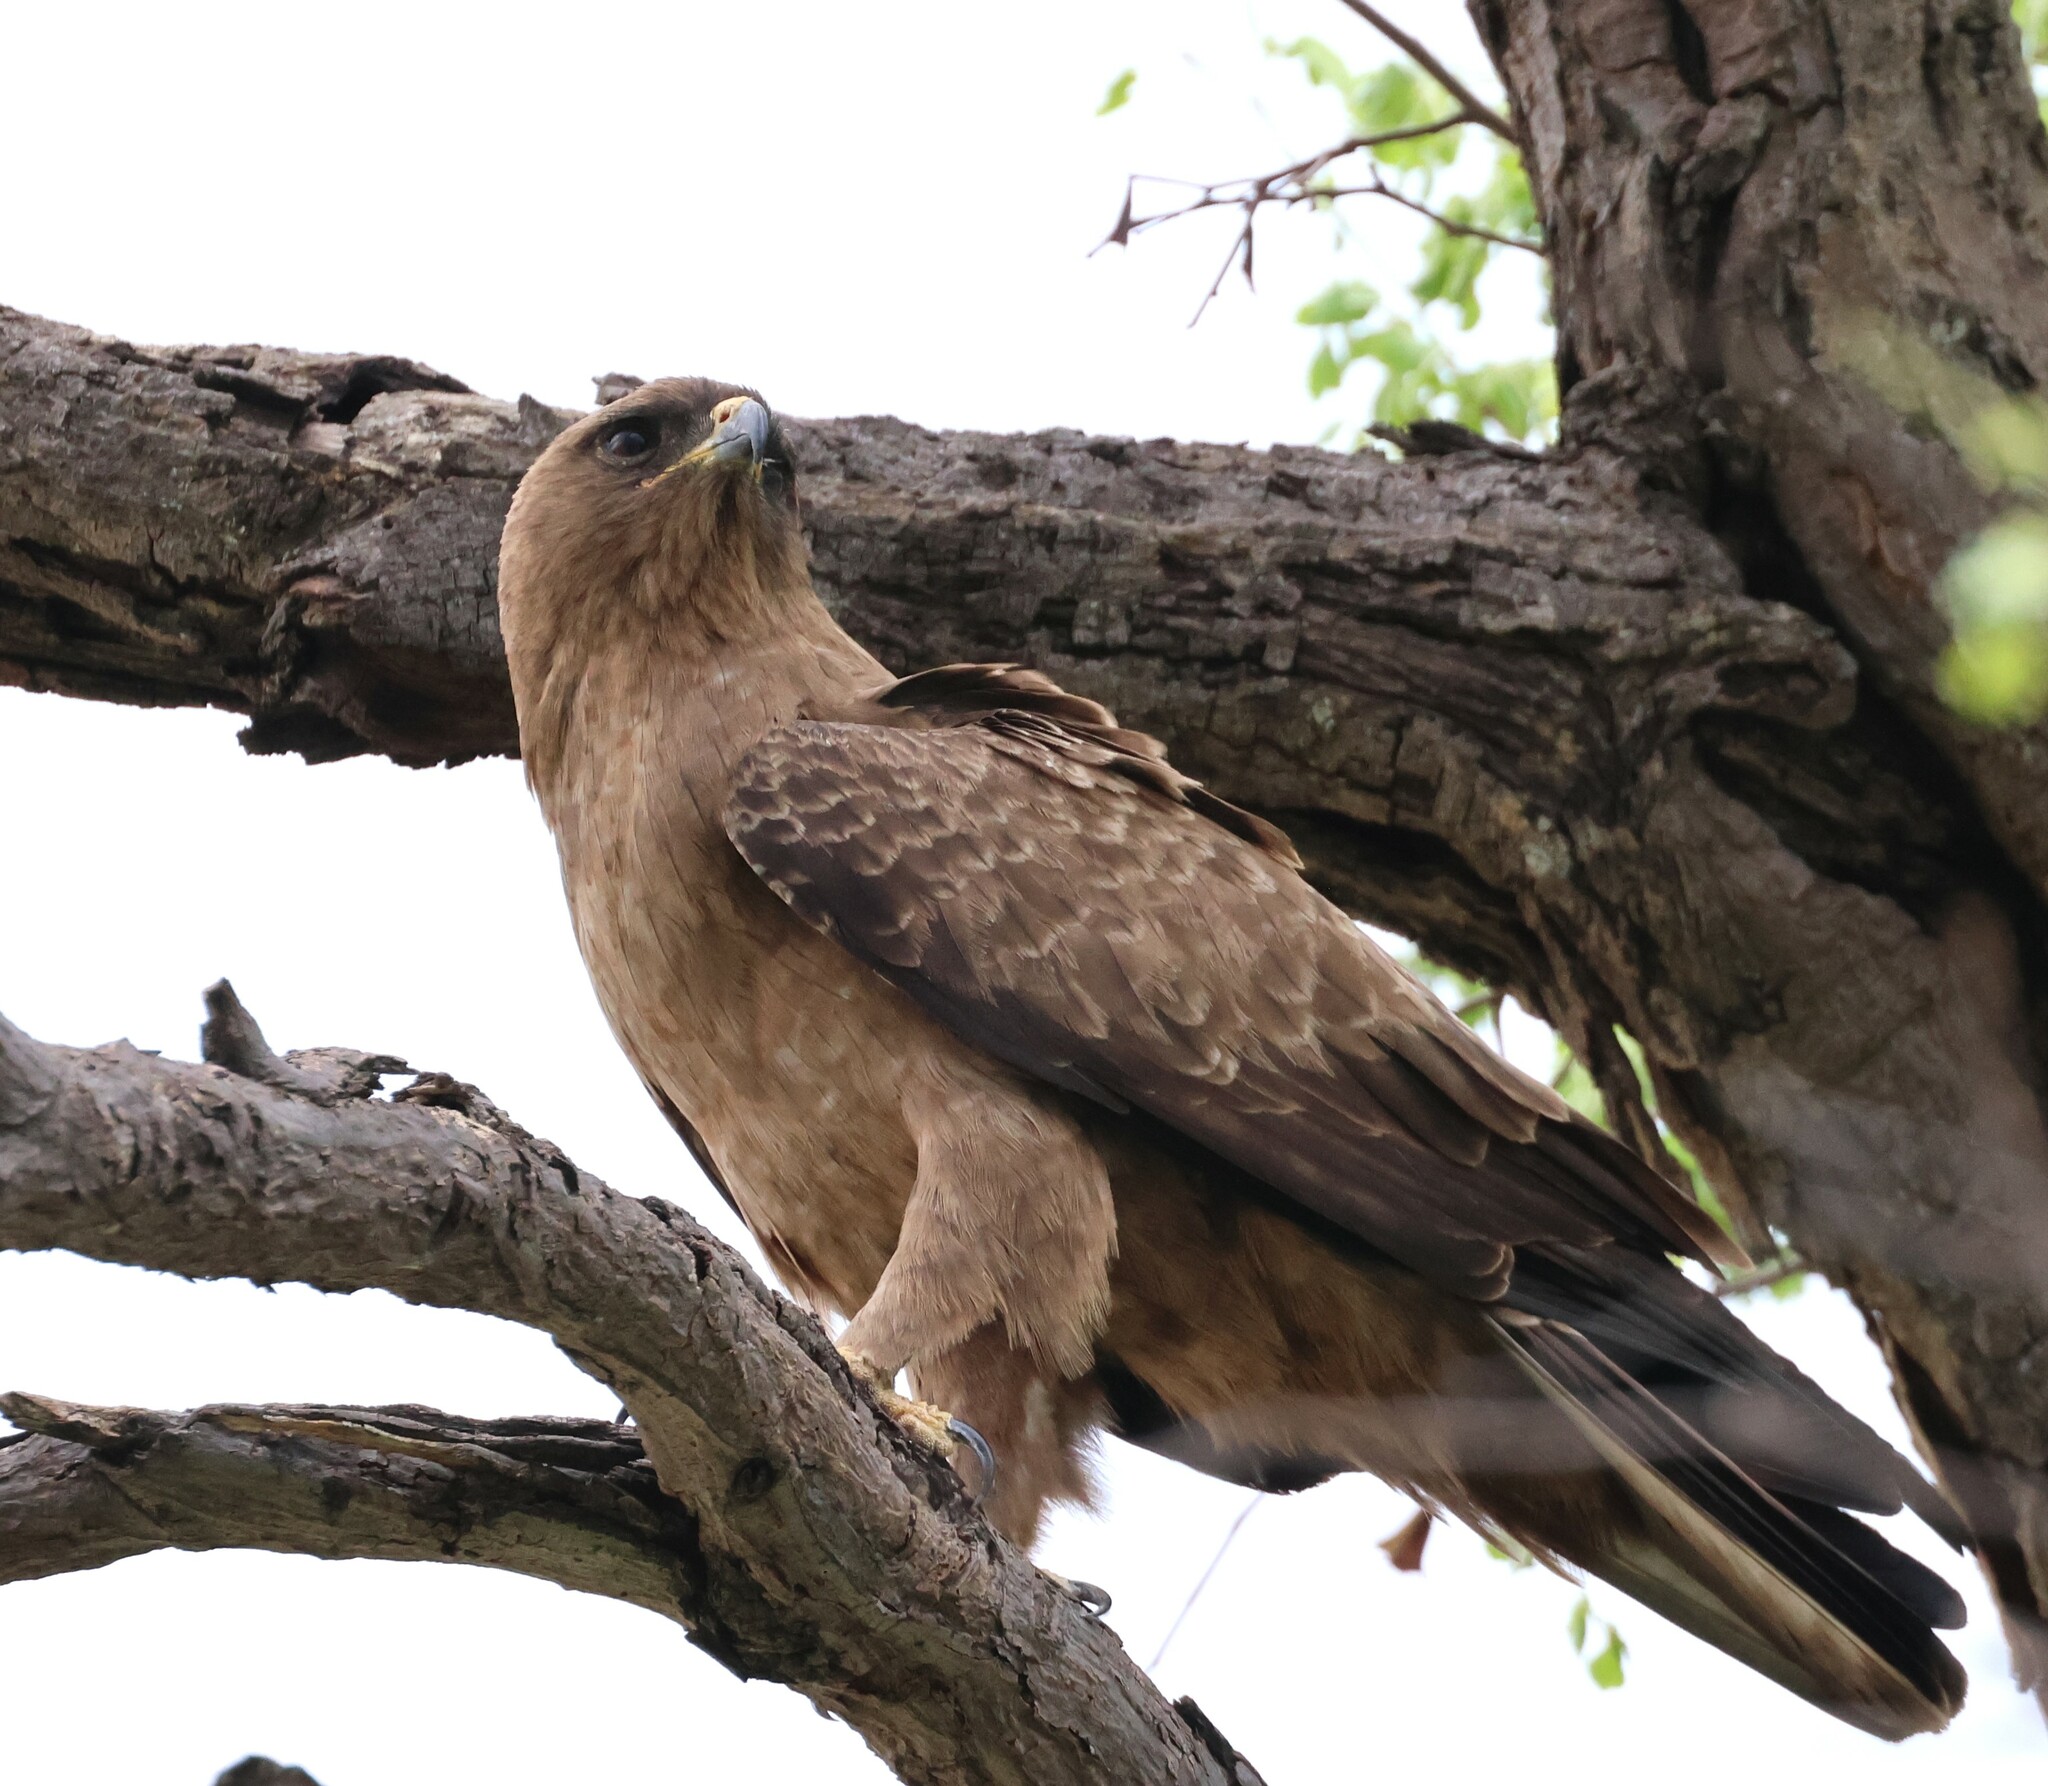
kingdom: Animalia
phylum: Chordata
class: Aves
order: Accipitriformes
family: Accipitridae
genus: Hieraaetus
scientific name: Hieraaetus wahlbergi
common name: Wahlberg's eagle
